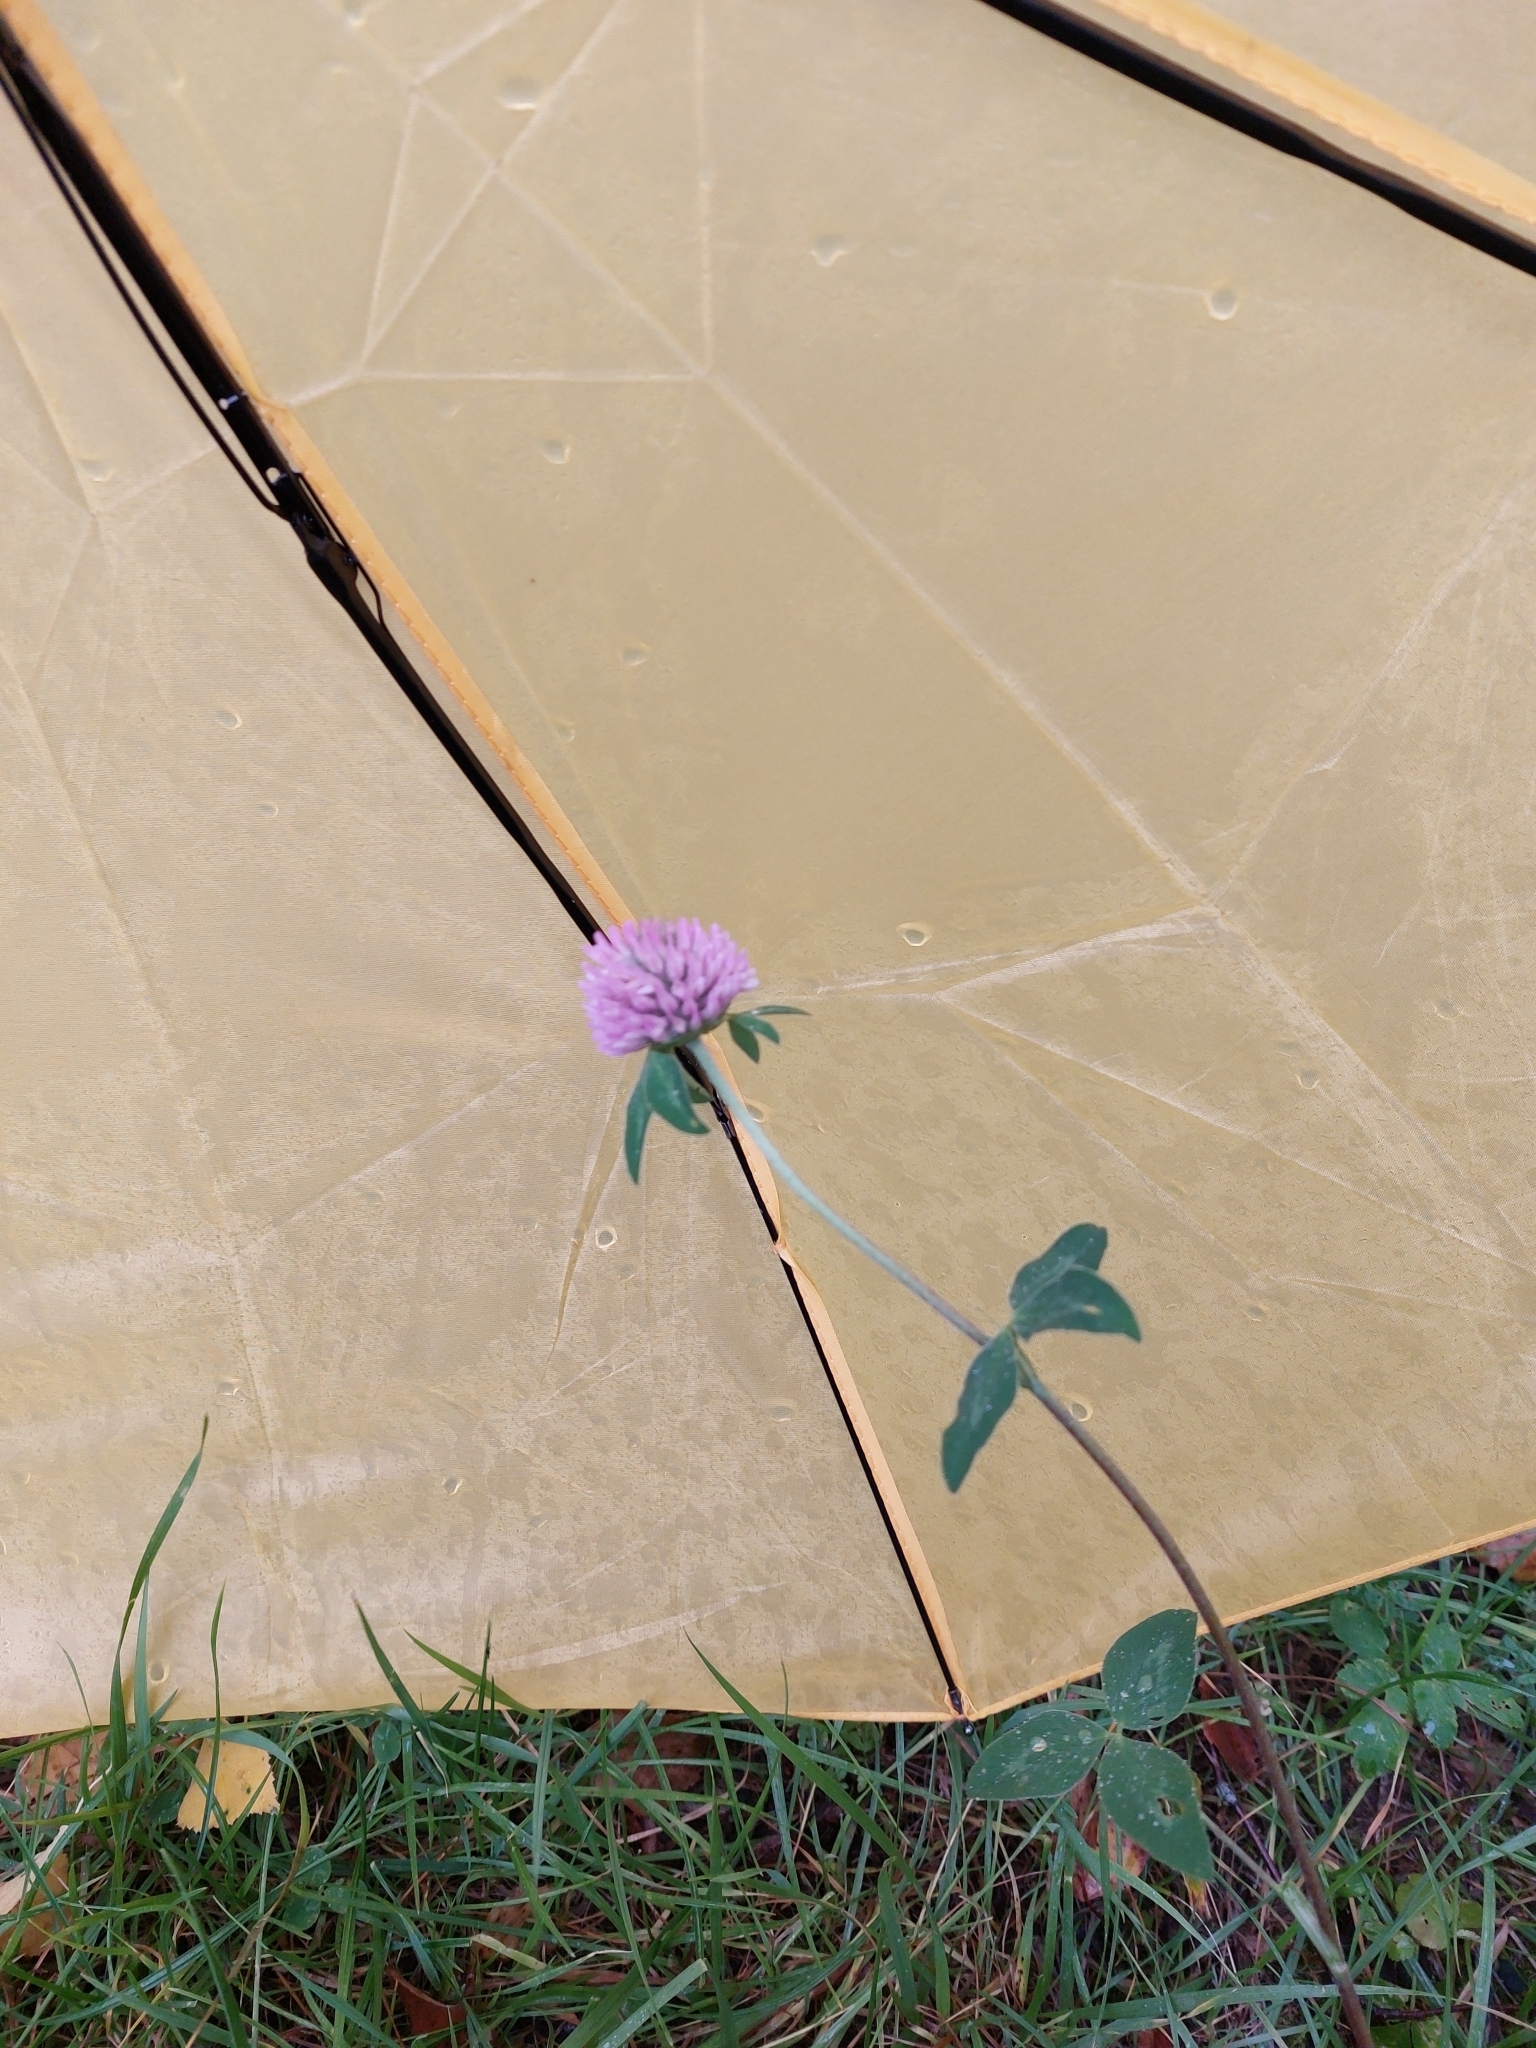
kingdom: Plantae
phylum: Tracheophyta
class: Magnoliopsida
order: Fabales
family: Fabaceae
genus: Trifolium
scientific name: Trifolium pratense
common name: Red clover
